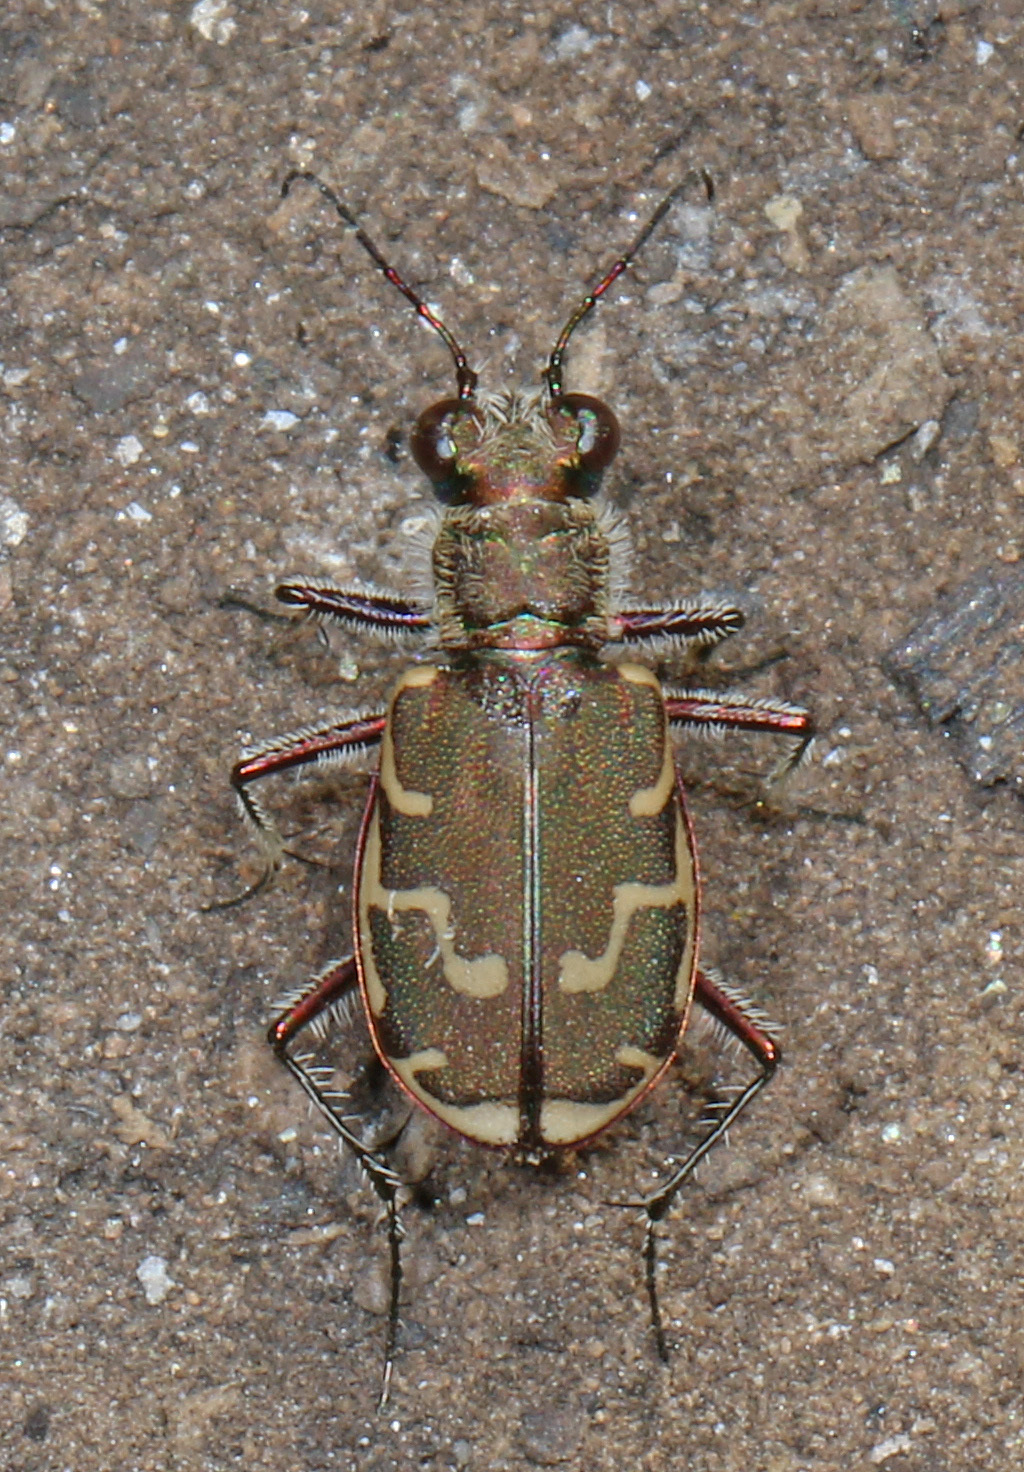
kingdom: Animalia
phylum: Arthropoda
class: Insecta
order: Coleoptera
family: Carabidae
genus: Cicindela
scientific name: Cicindela repanda
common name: Bronzed tiger beetle
